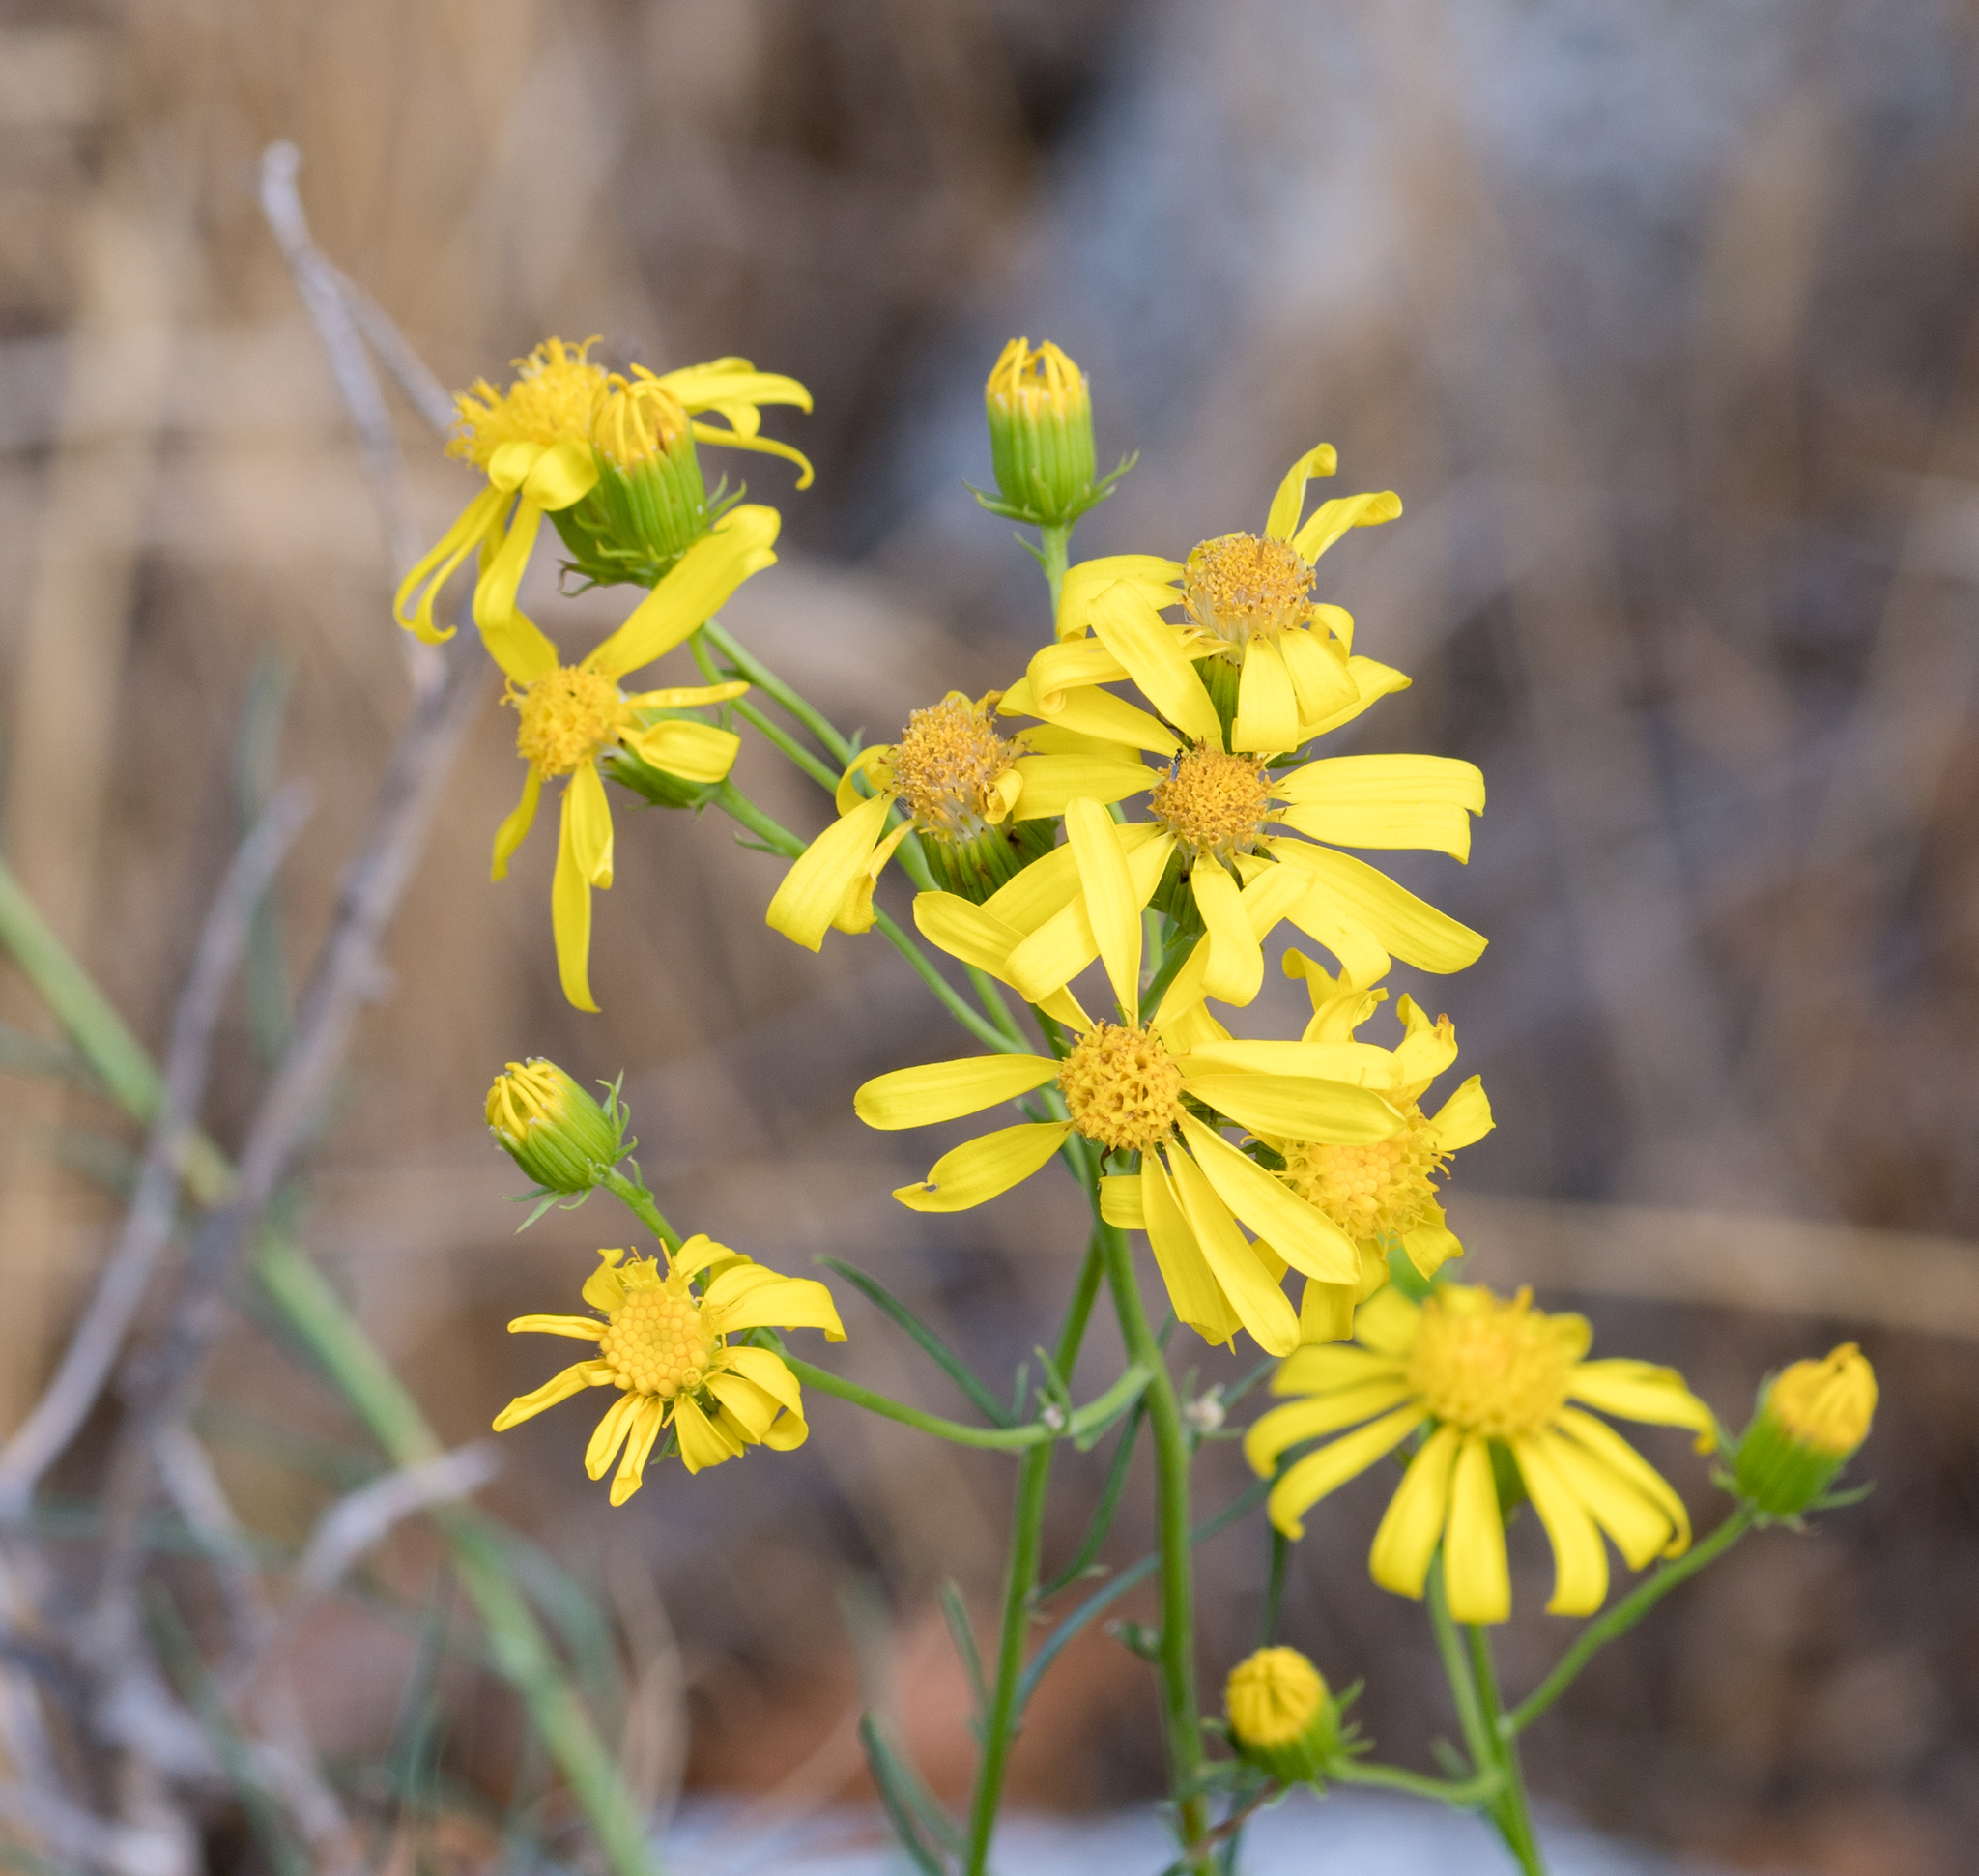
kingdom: Plantae
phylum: Tracheophyta
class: Magnoliopsida
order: Asterales
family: Asteraceae
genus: Senecio
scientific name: Senecio flaccidus
